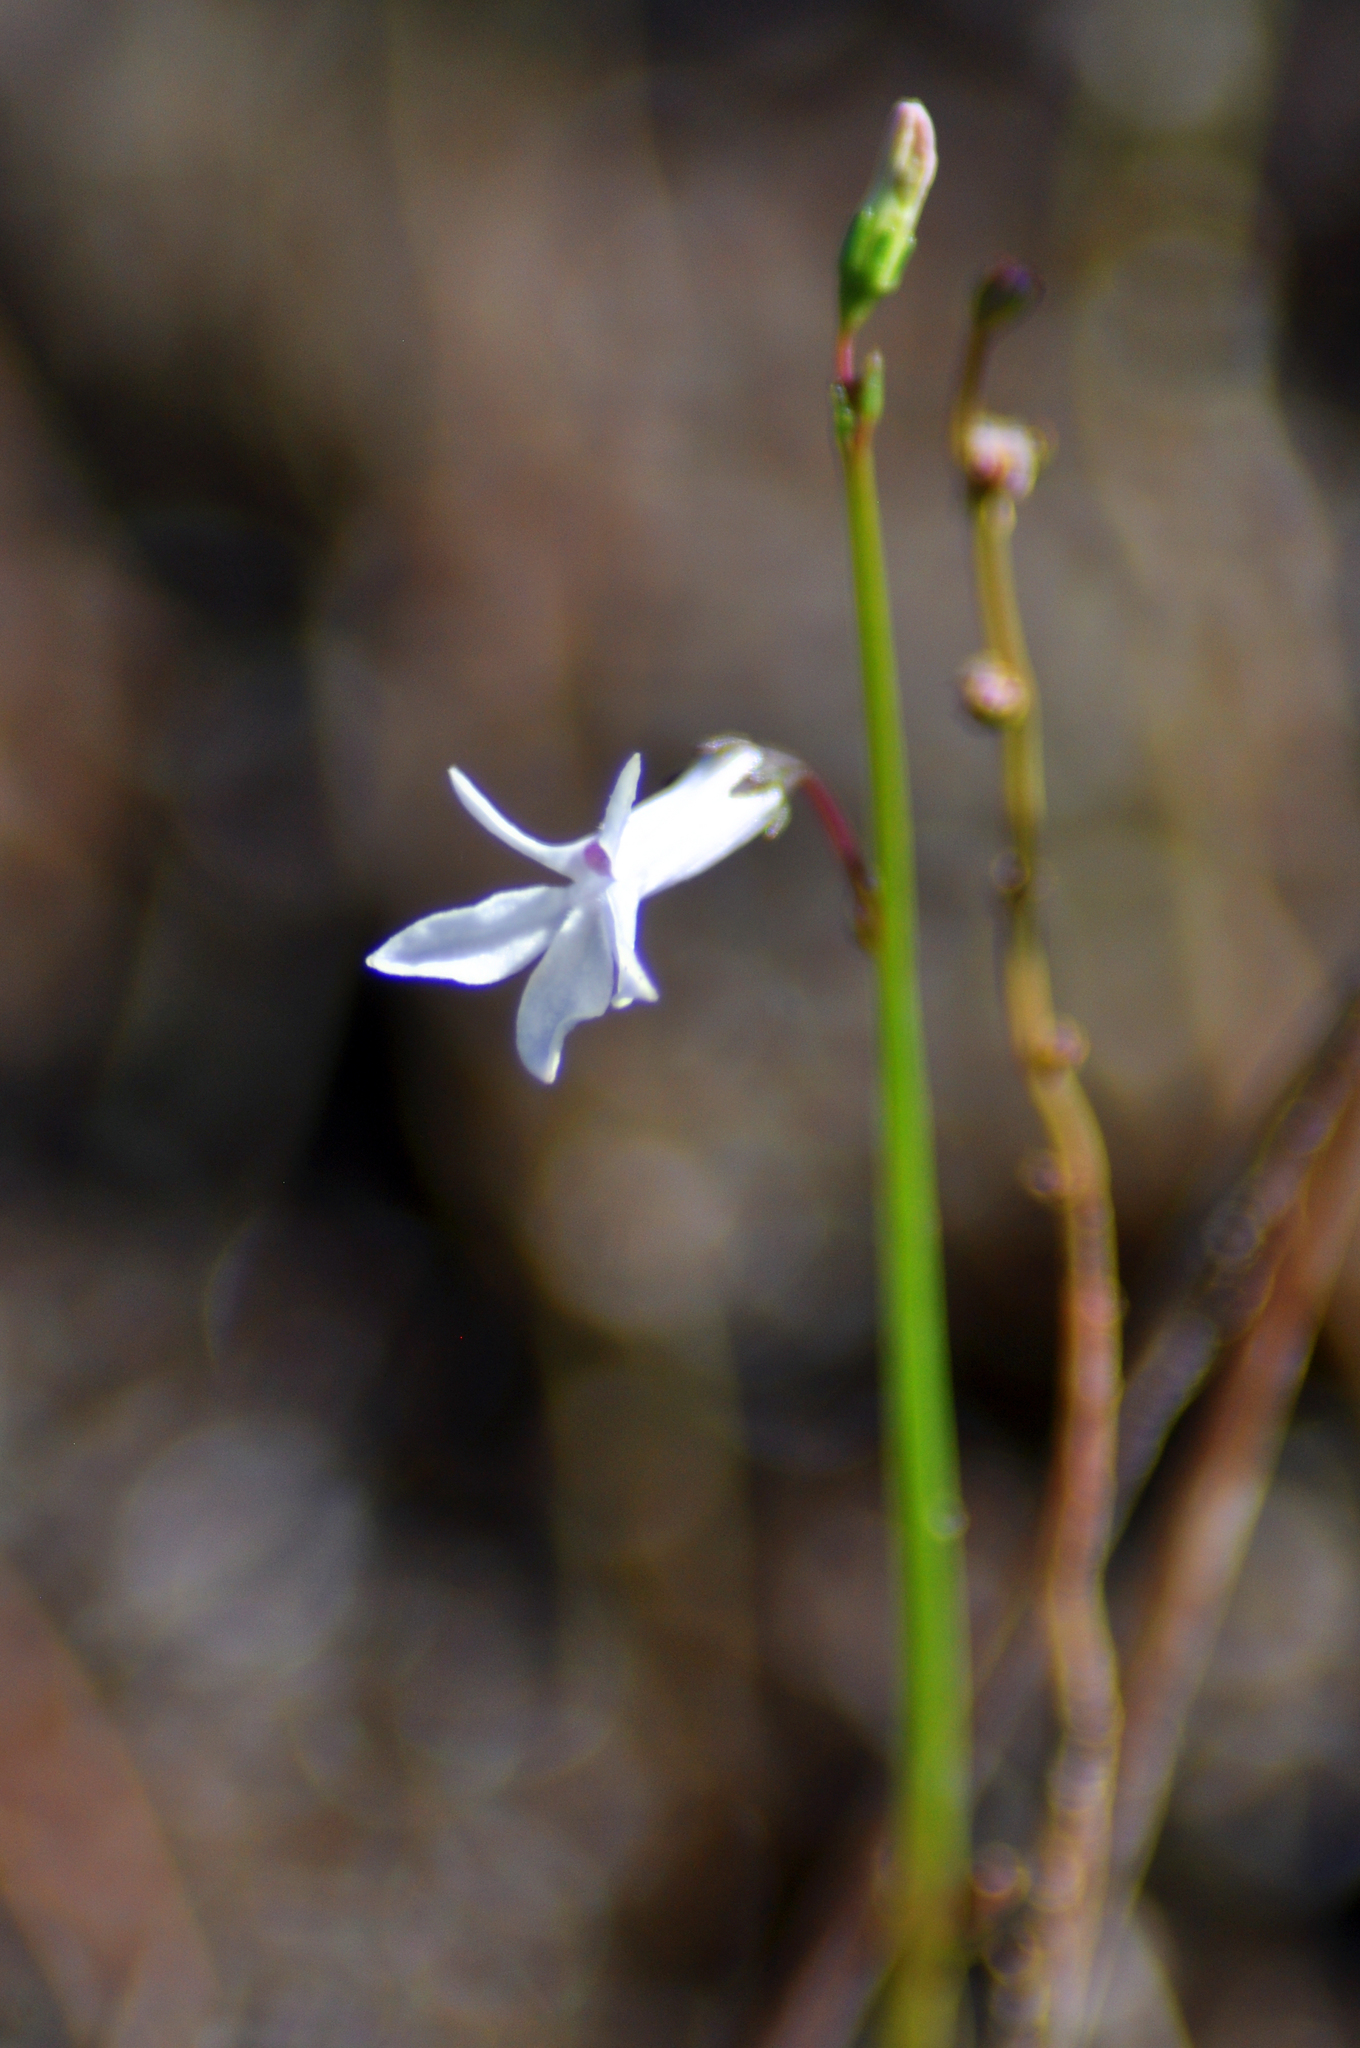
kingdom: Plantae
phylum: Tracheophyta
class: Magnoliopsida
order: Asterales
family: Campanulaceae
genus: Lobelia
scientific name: Lobelia dortmanna
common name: Water lobelia
